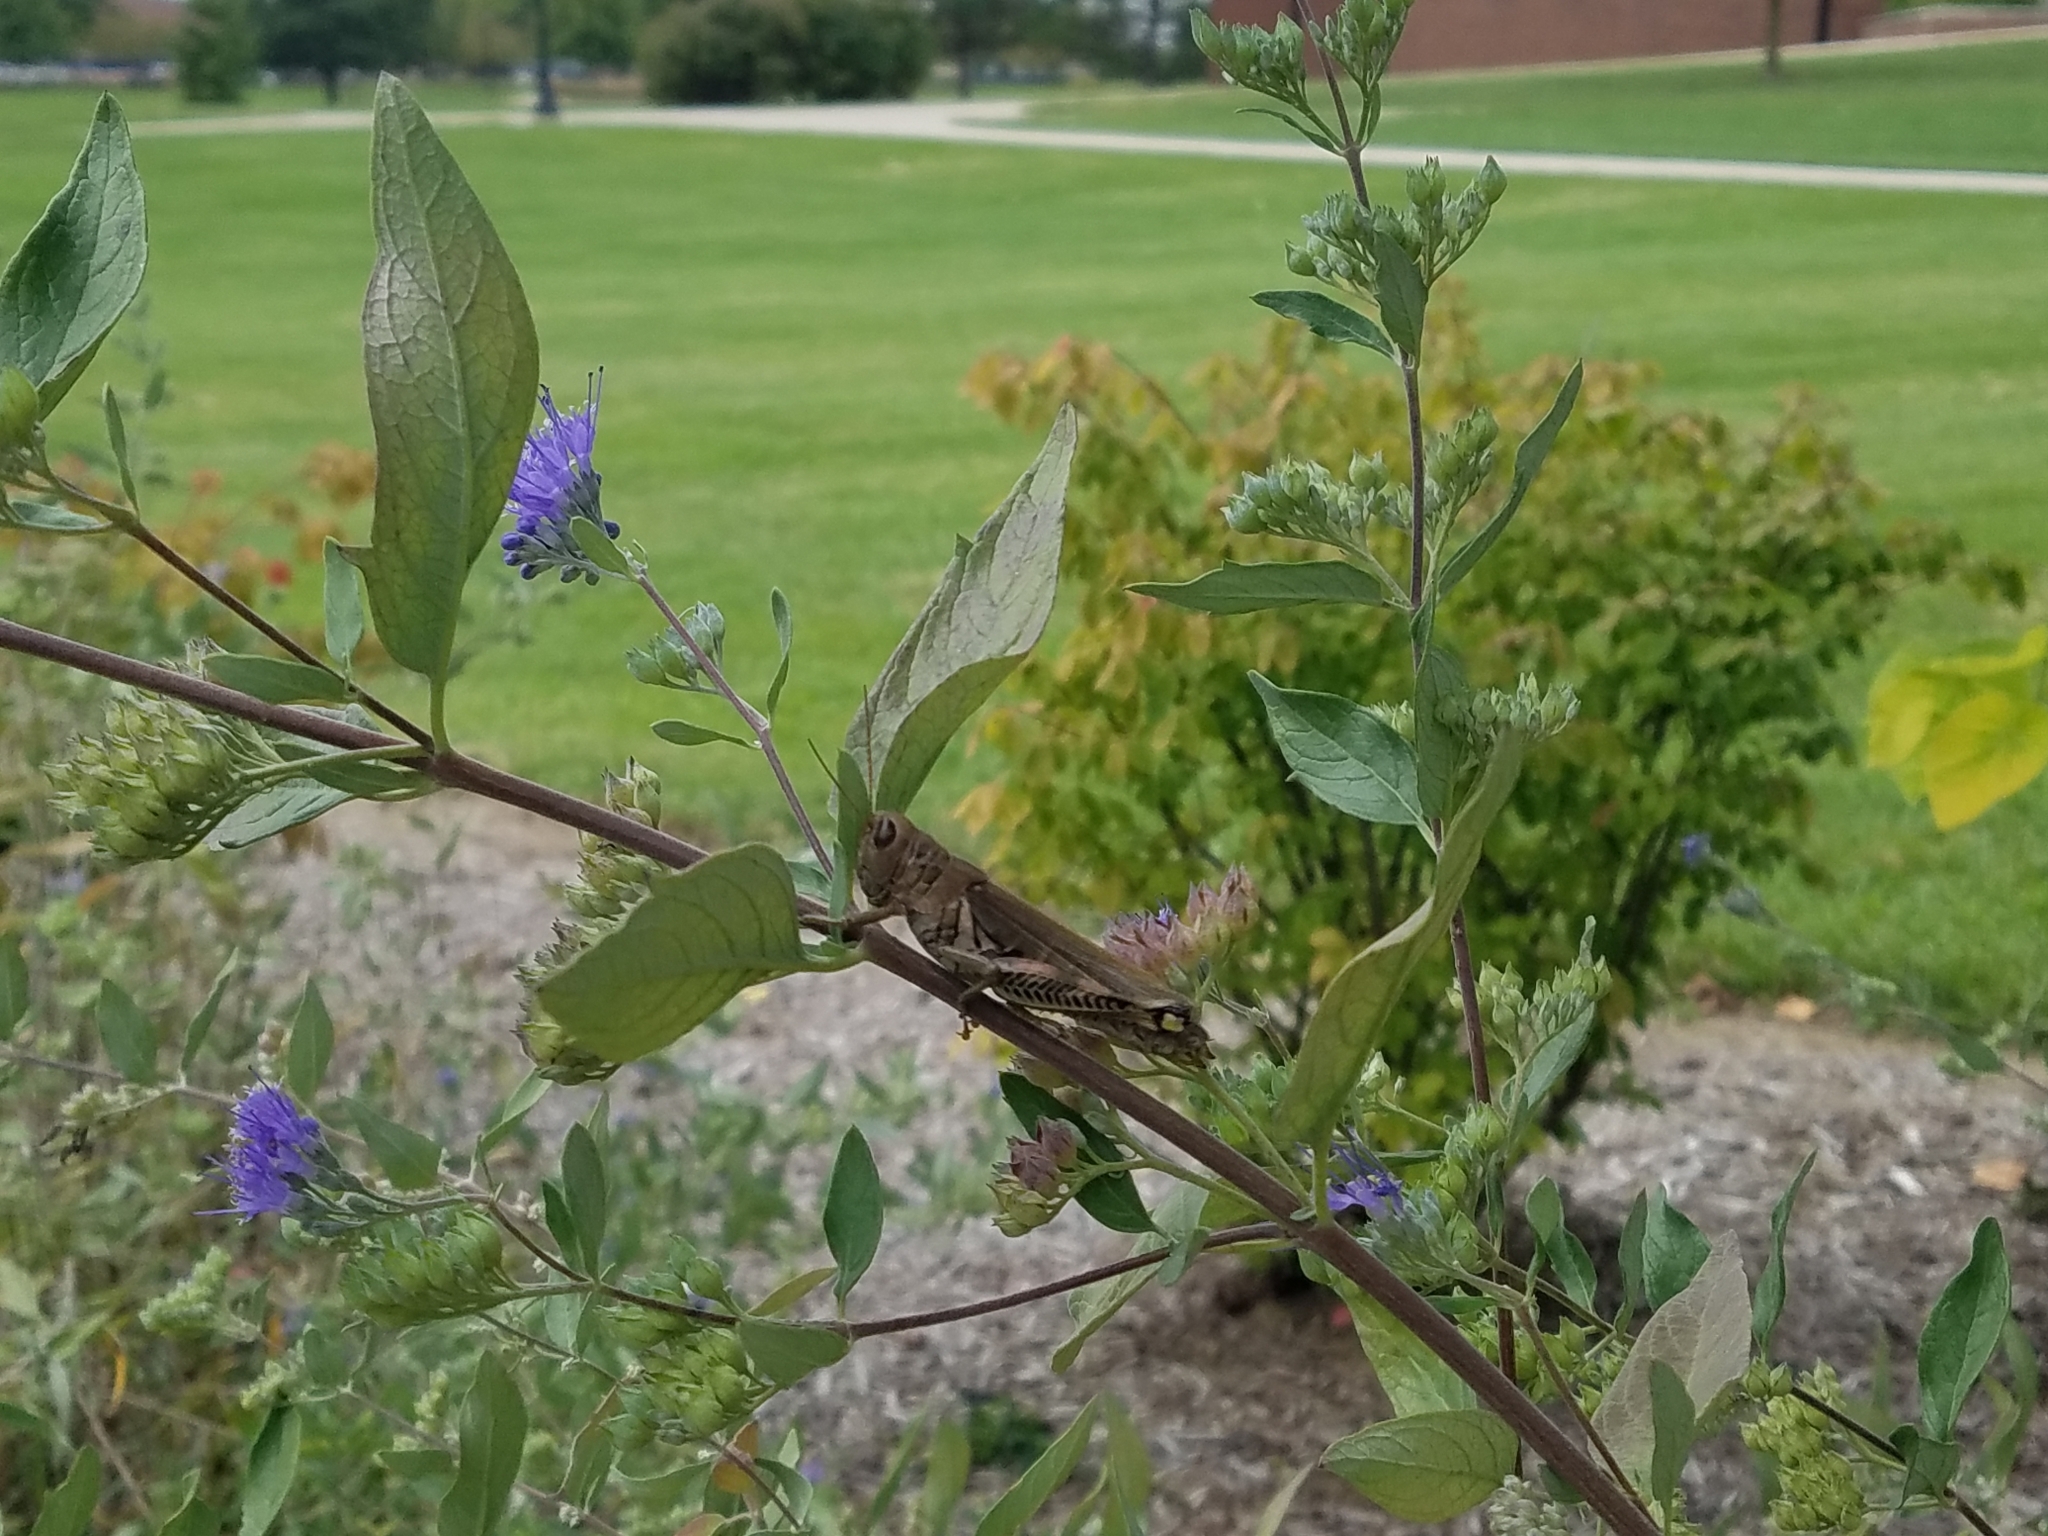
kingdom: Animalia
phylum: Arthropoda
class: Insecta
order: Orthoptera
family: Acrididae
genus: Melanoplus
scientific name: Melanoplus differentialis
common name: Differential grasshopper
